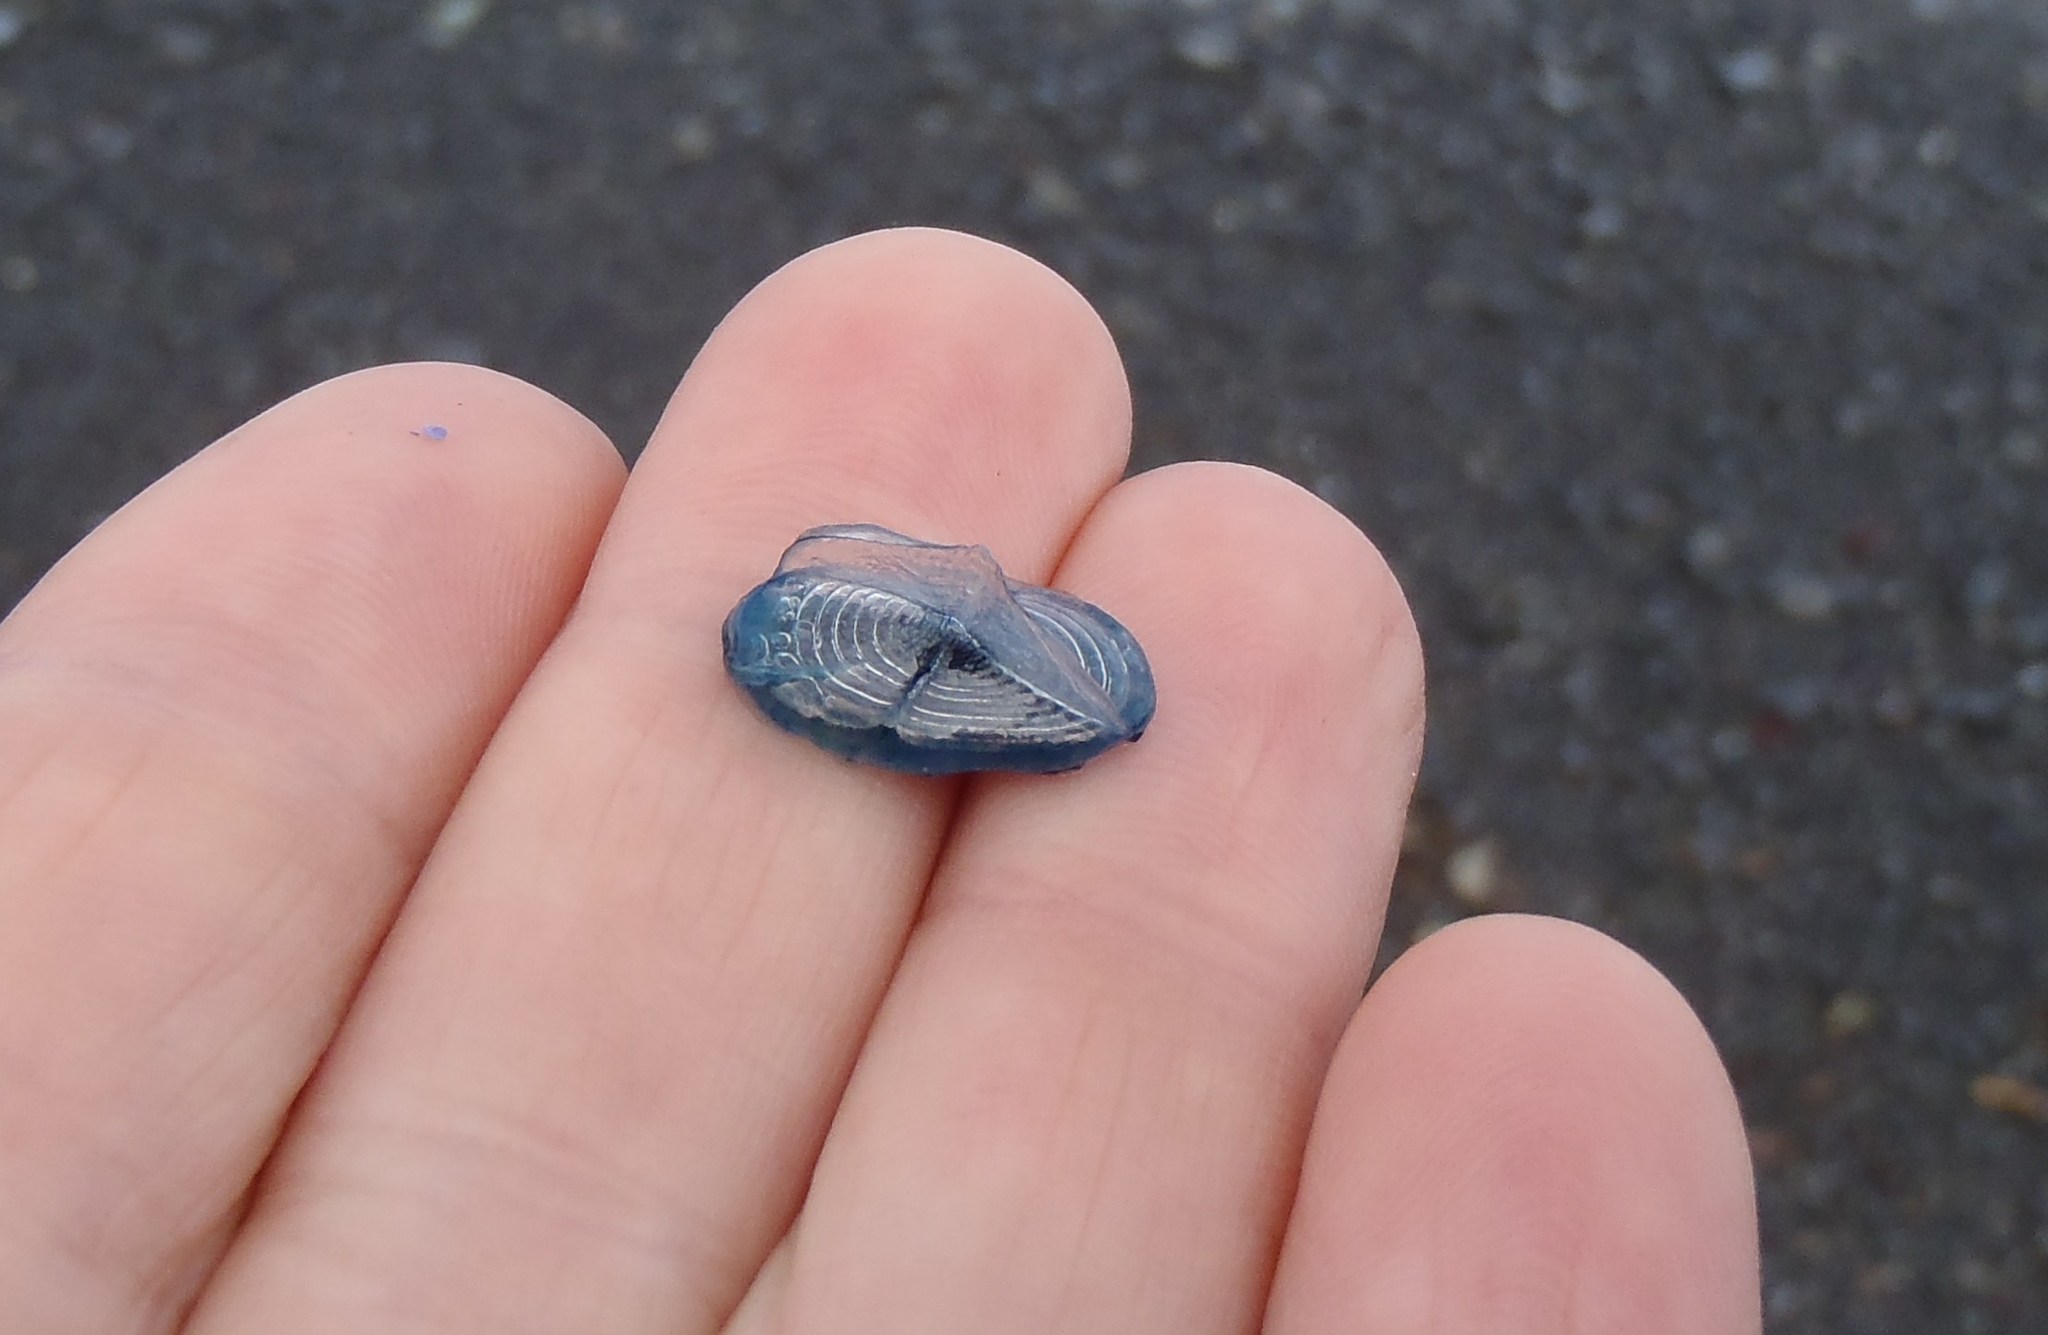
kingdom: Animalia
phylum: Cnidaria
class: Hydrozoa
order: Anthoathecata
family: Porpitidae
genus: Velella
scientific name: Velella velella
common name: By-the-wind-sailor
